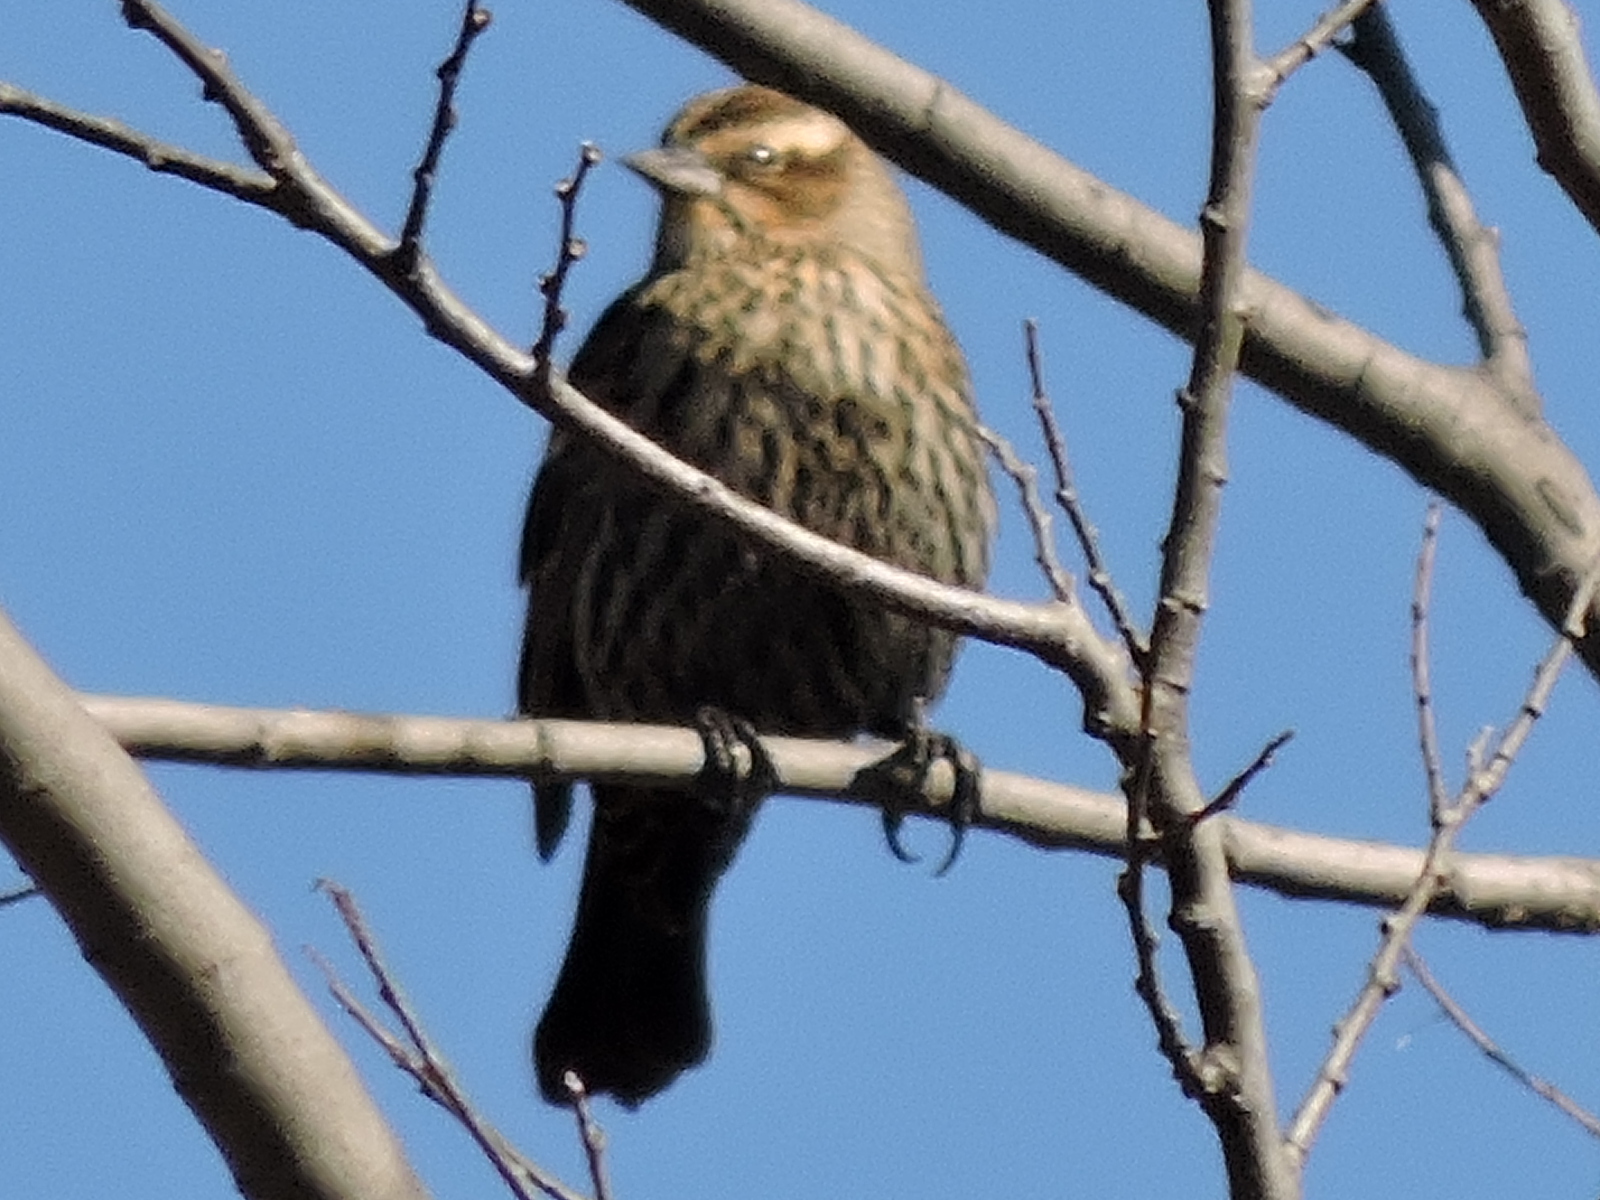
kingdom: Animalia
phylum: Chordata
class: Aves
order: Passeriformes
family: Icteridae
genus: Agelaius
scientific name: Agelaius phoeniceus
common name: Red-winged blackbird
